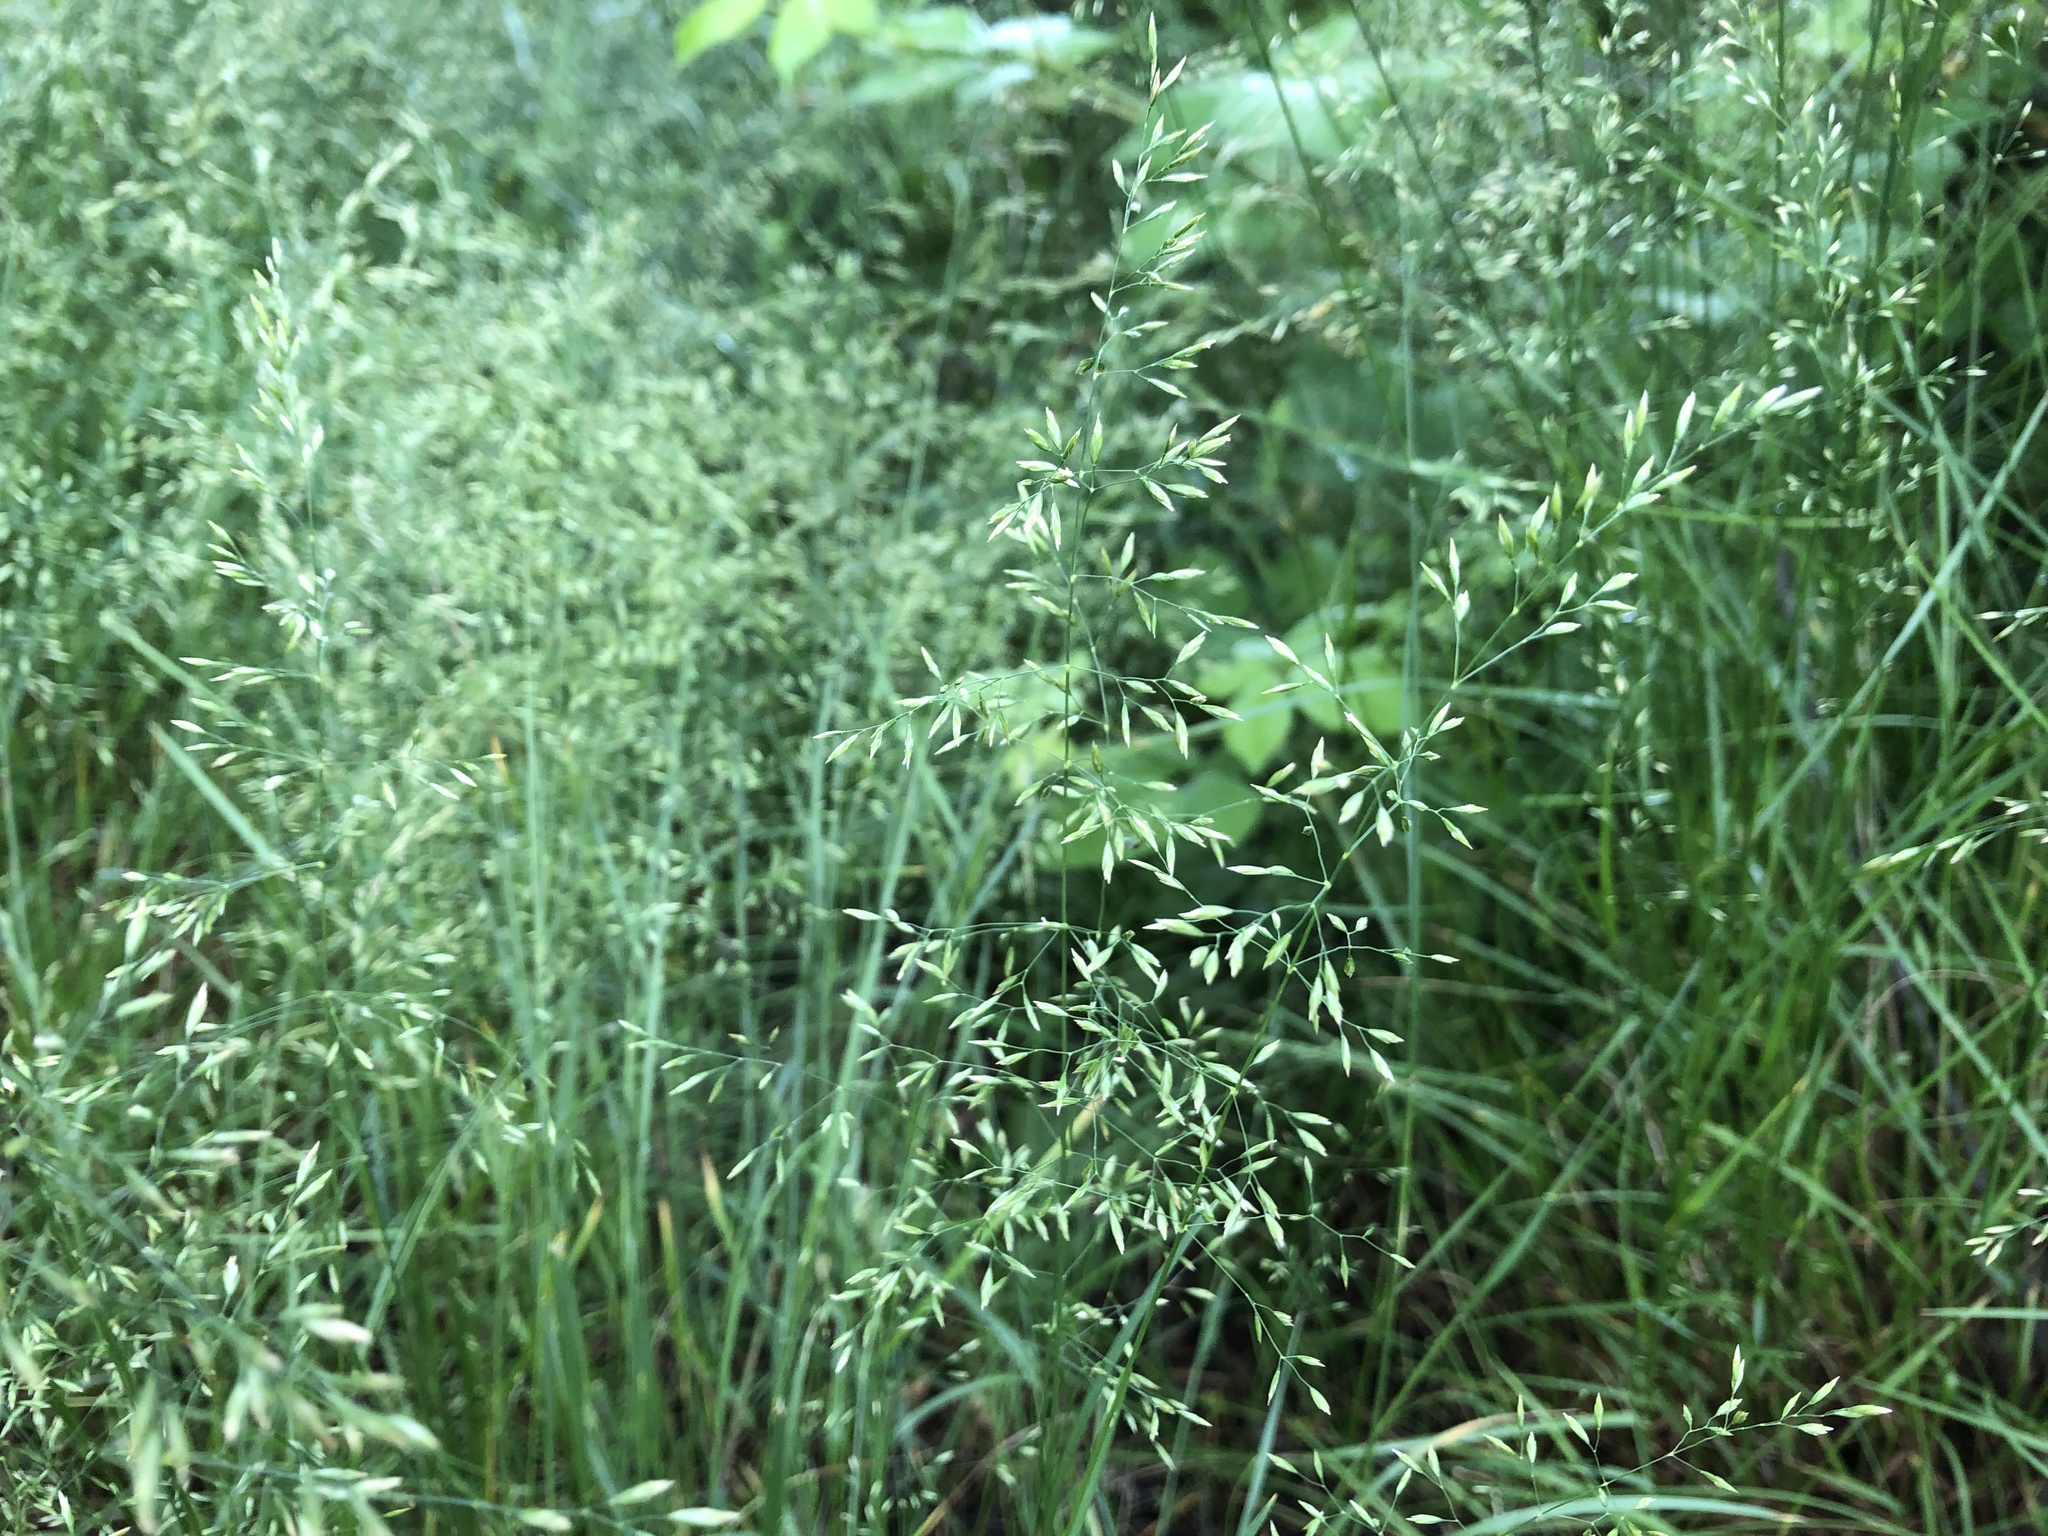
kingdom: Plantae
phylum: Tracheophyta
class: Liliopsida
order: Poales
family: Poaceae
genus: Poa
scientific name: Poa nemoralis
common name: Wood bluegrass
